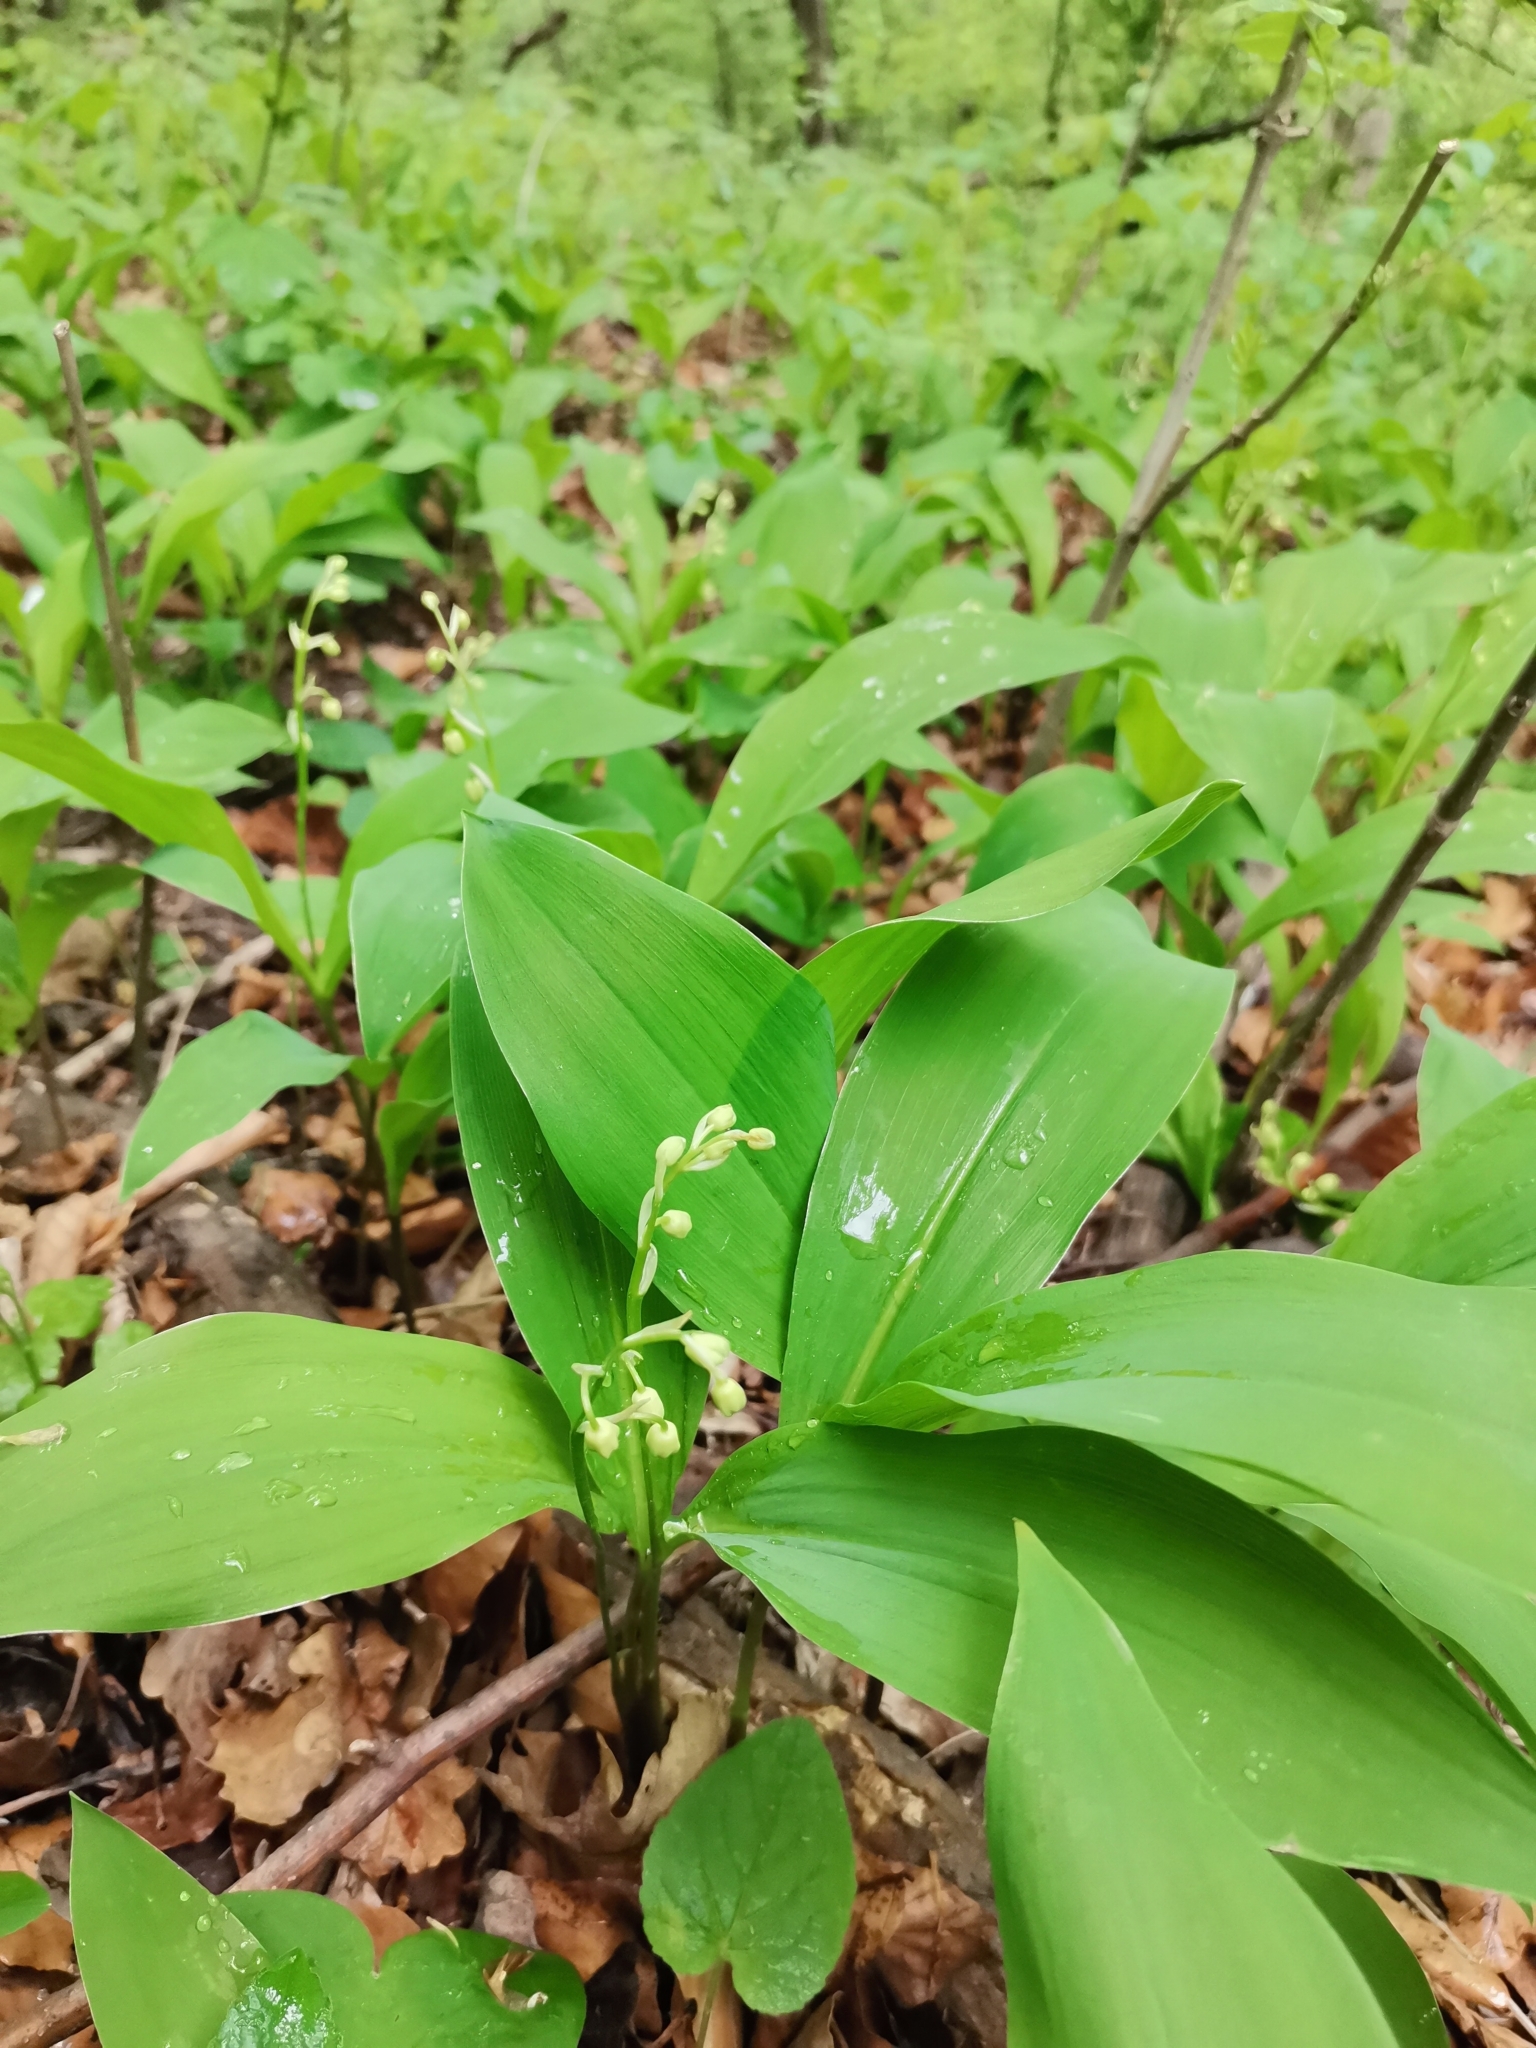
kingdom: Plantae
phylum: Tracheophyta
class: Liliopsida
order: Asparagales
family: Asparagaceae
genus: Convallaria
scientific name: Convallaria majalis
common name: Lily-of-the-valley
